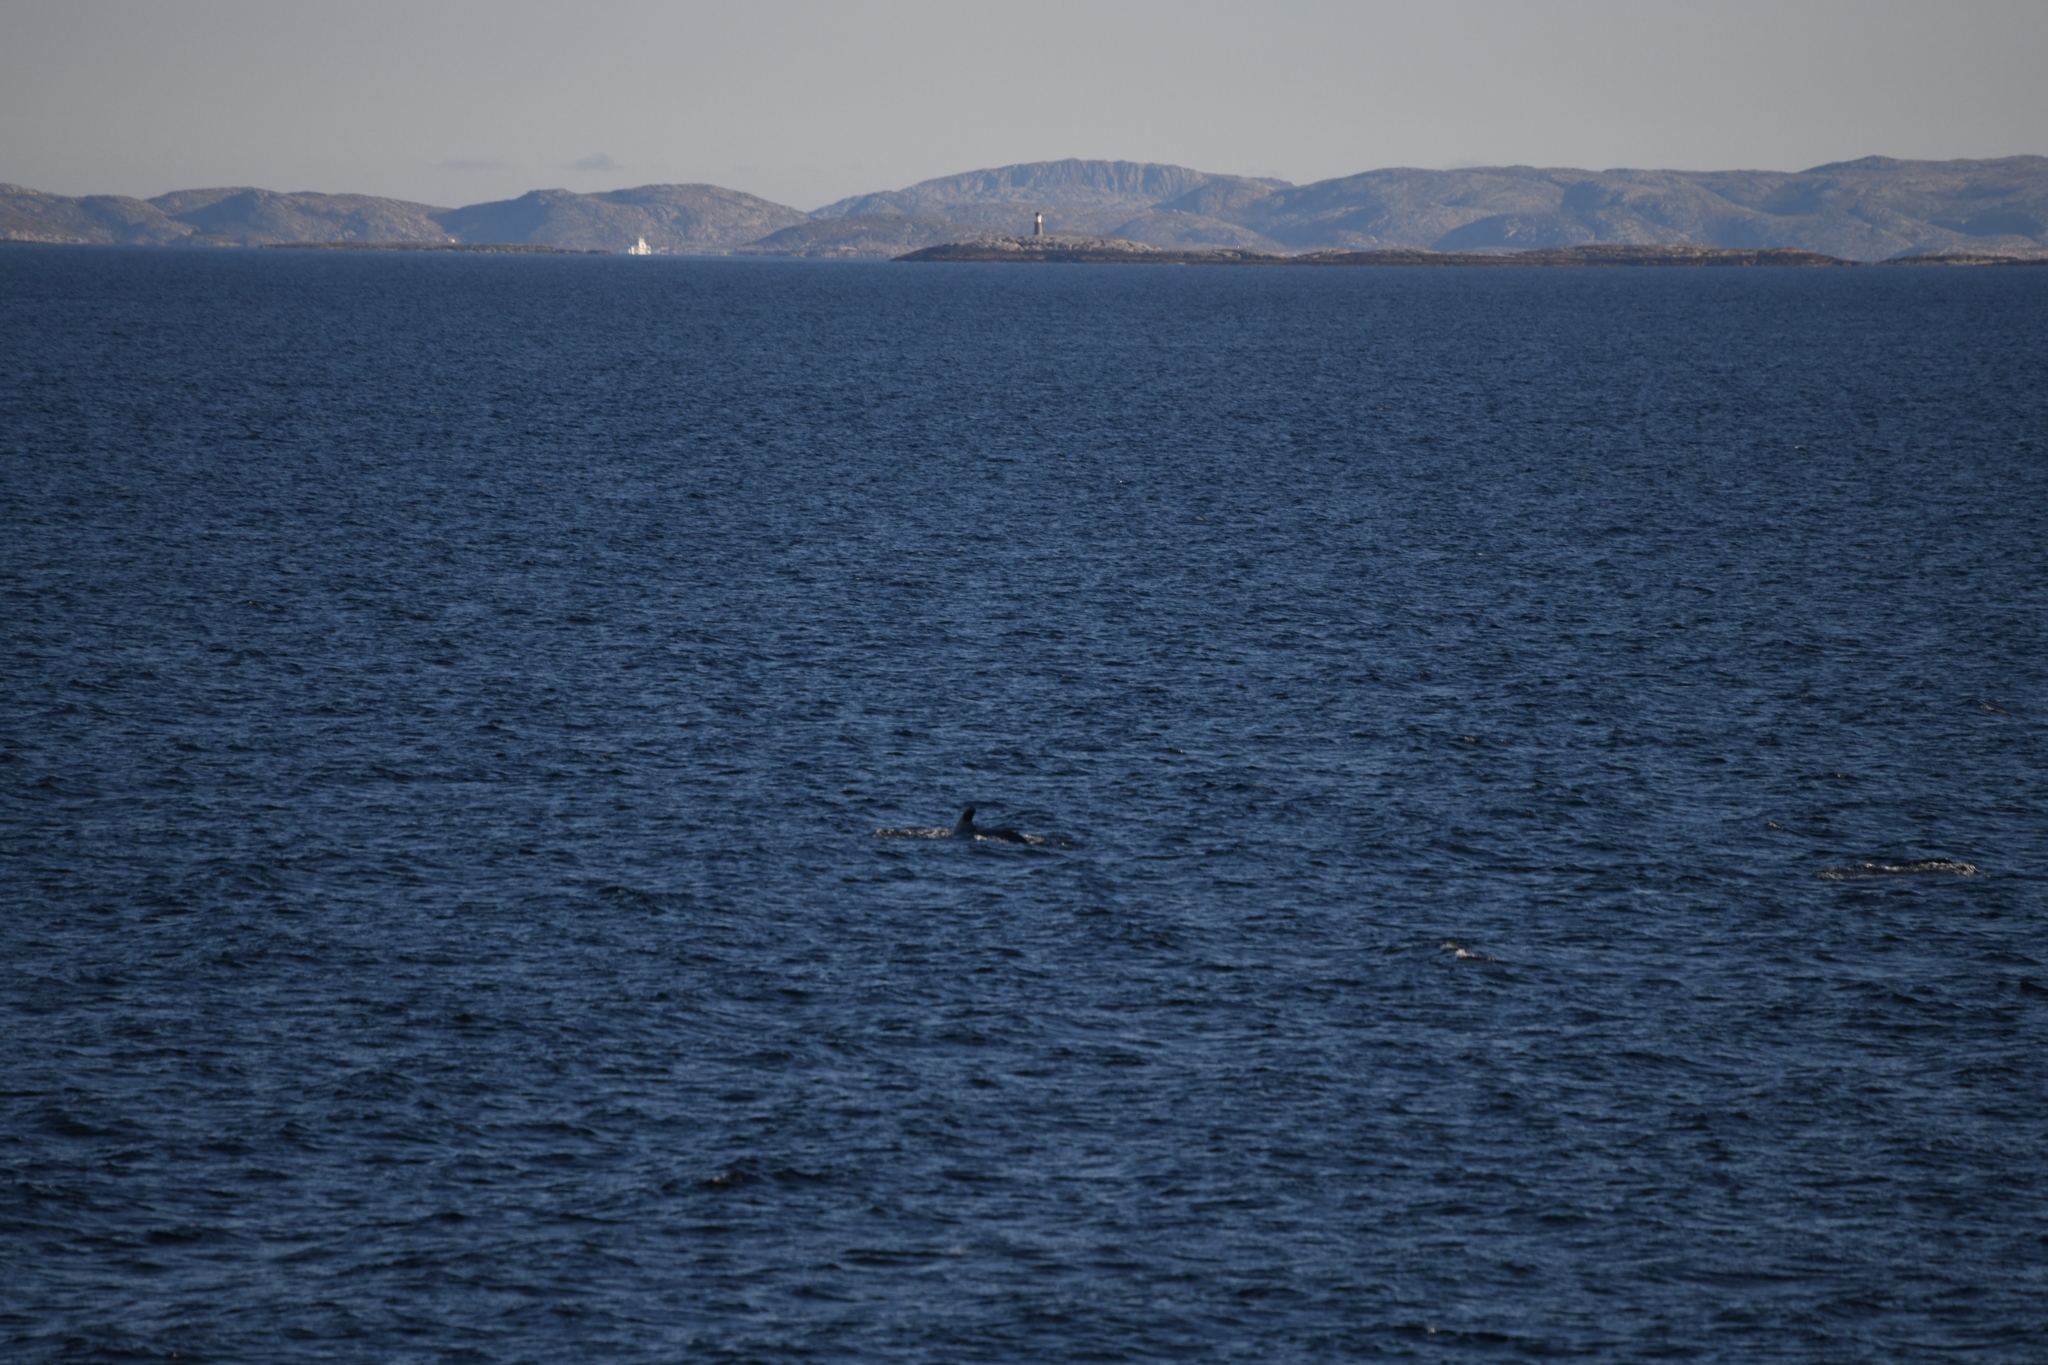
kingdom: Animalia
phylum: Chordata
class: Mammalia
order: Cetacea
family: Delphinidae
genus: Globicephala
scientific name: Globicephala melas
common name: Long-finned pilot whale
